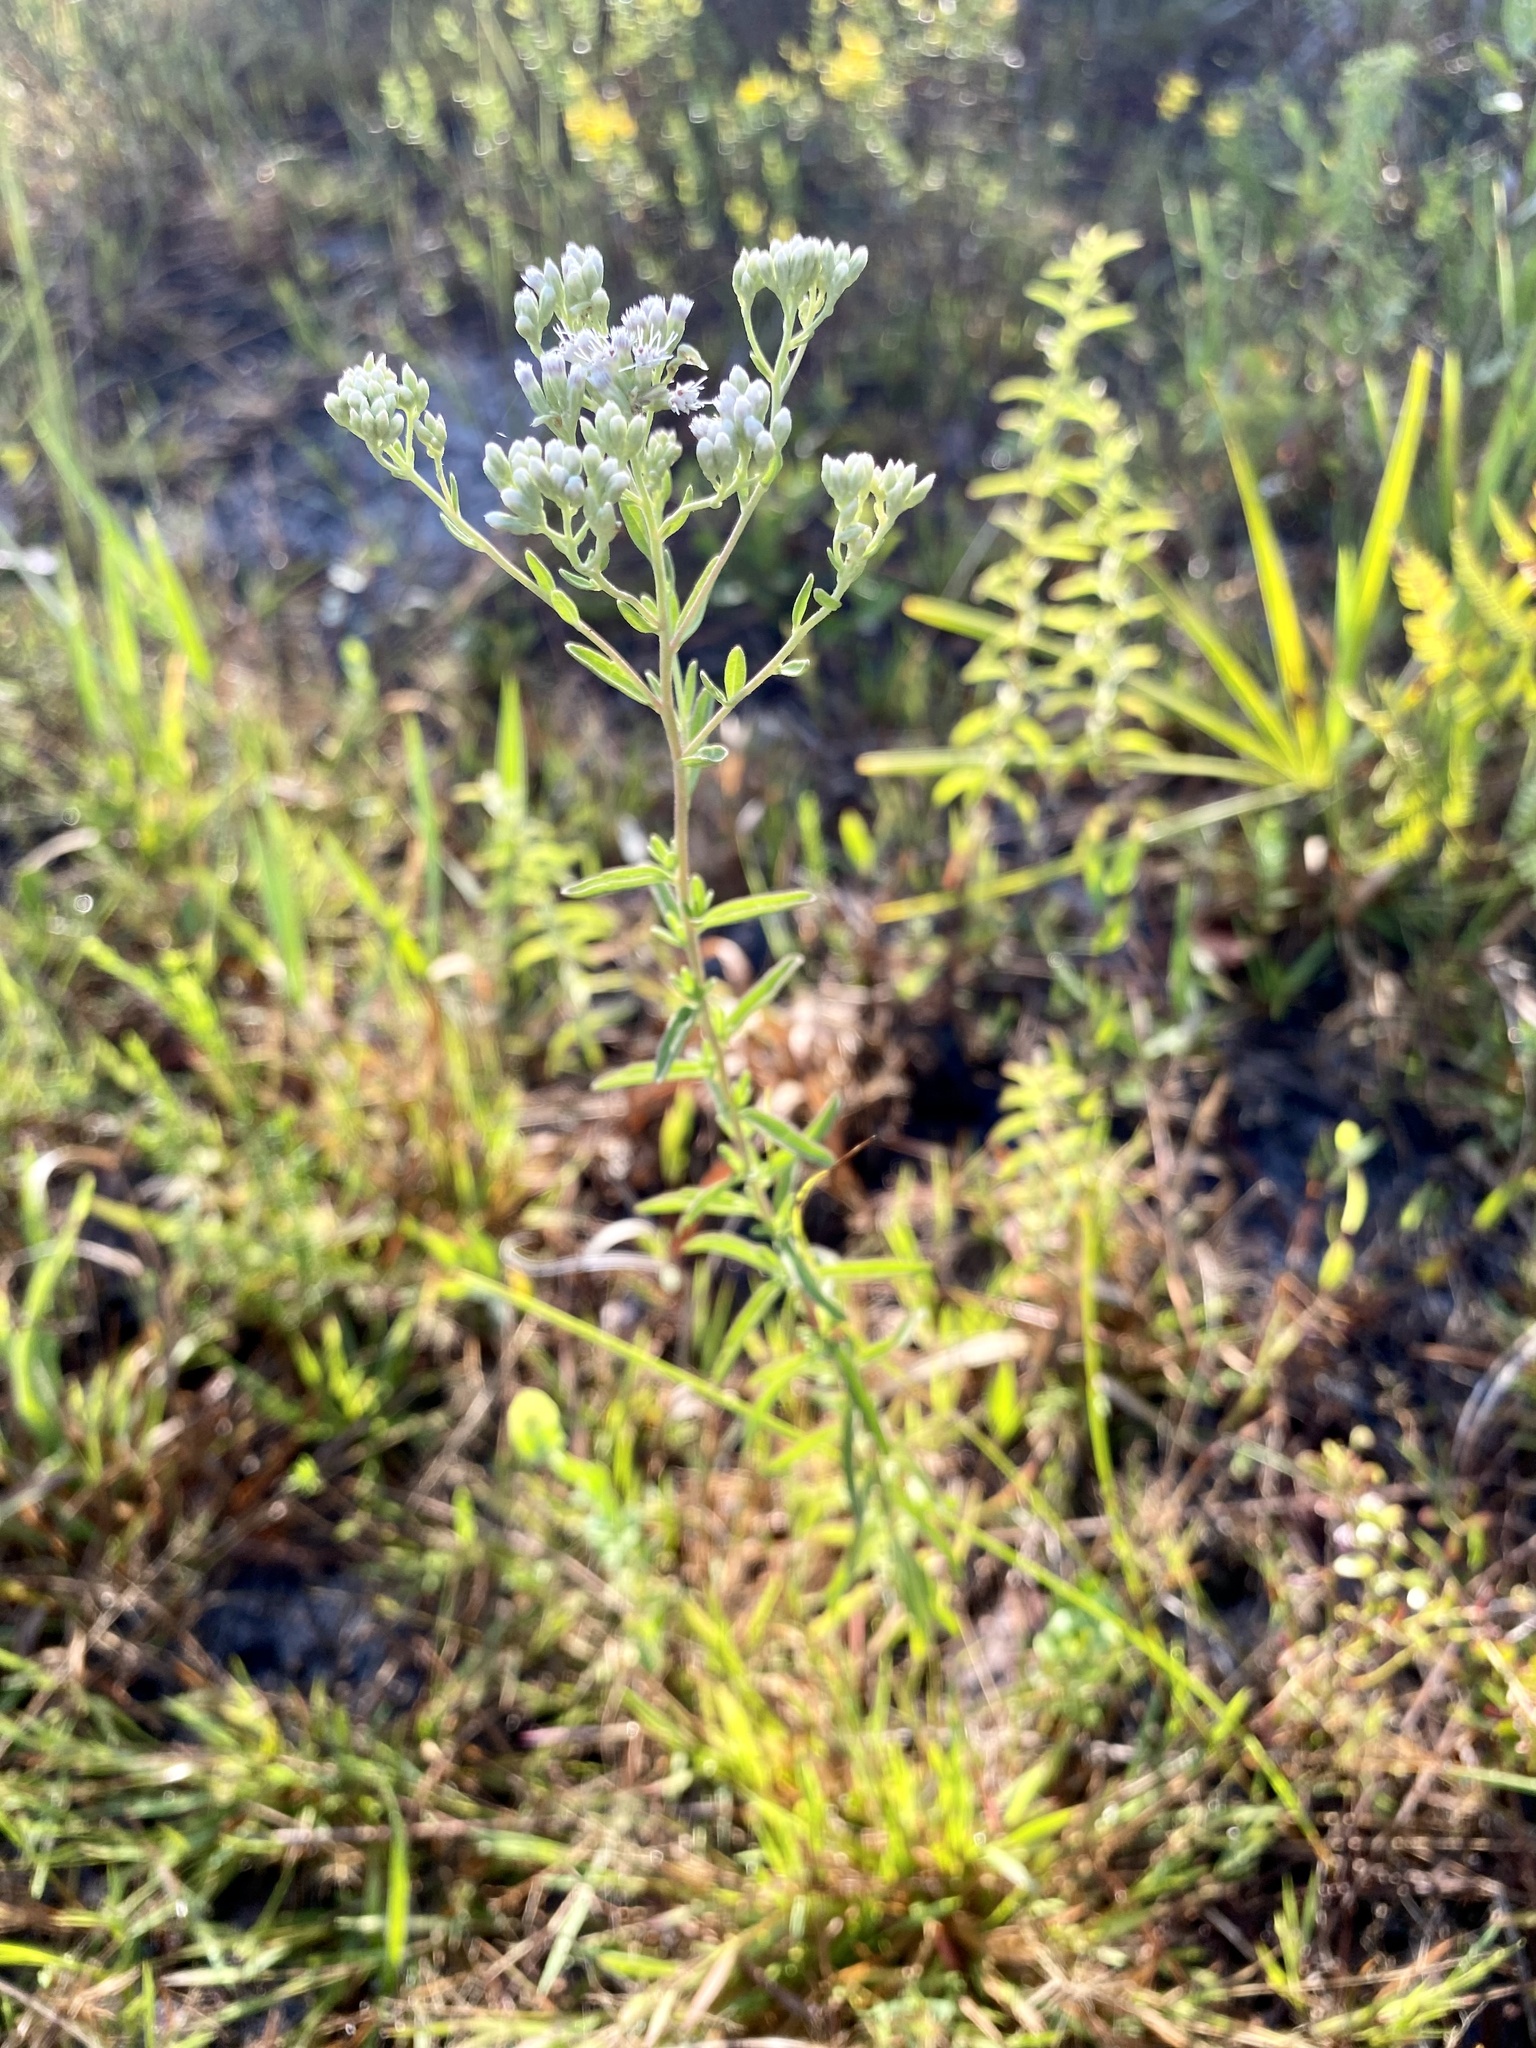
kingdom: Plantae
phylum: Tracheophyta
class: Magnoliopsida
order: Asterales
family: Asteraceae
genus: Eupatorium
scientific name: Eupatorium mohrii
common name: Mohr's thoroughwort
